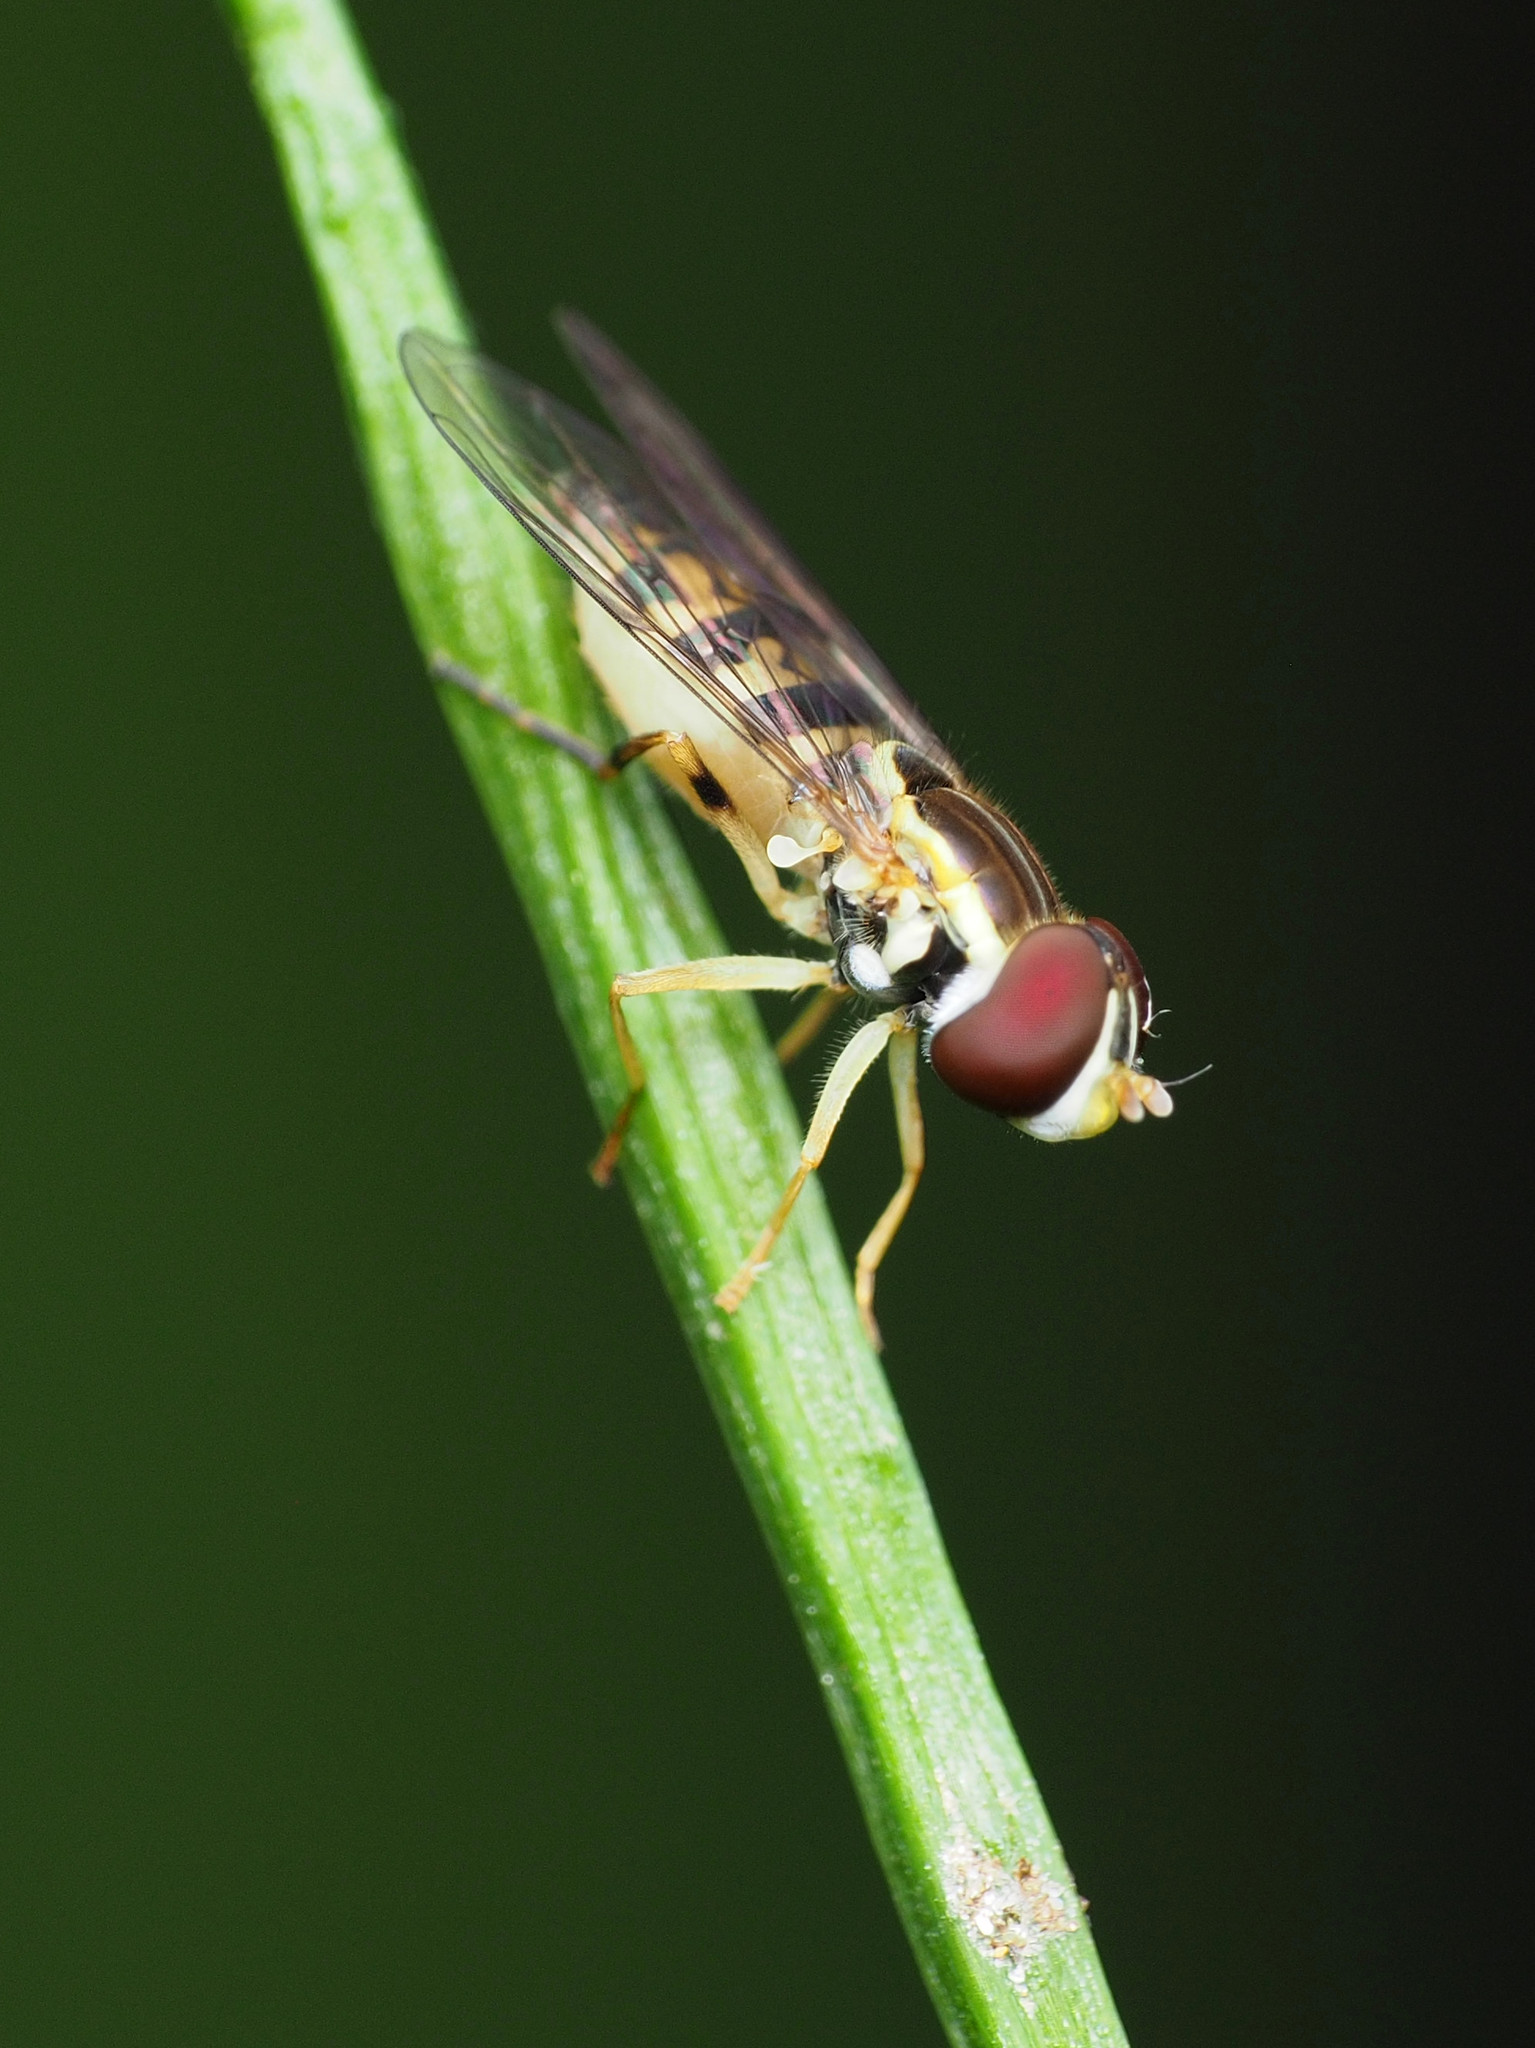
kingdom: Animalia
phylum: Arthropoda
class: Insecta
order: Diptera
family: Syrphidae
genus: Toxomerus
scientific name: Toxomerus geminatus
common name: Eastern calligrapher
